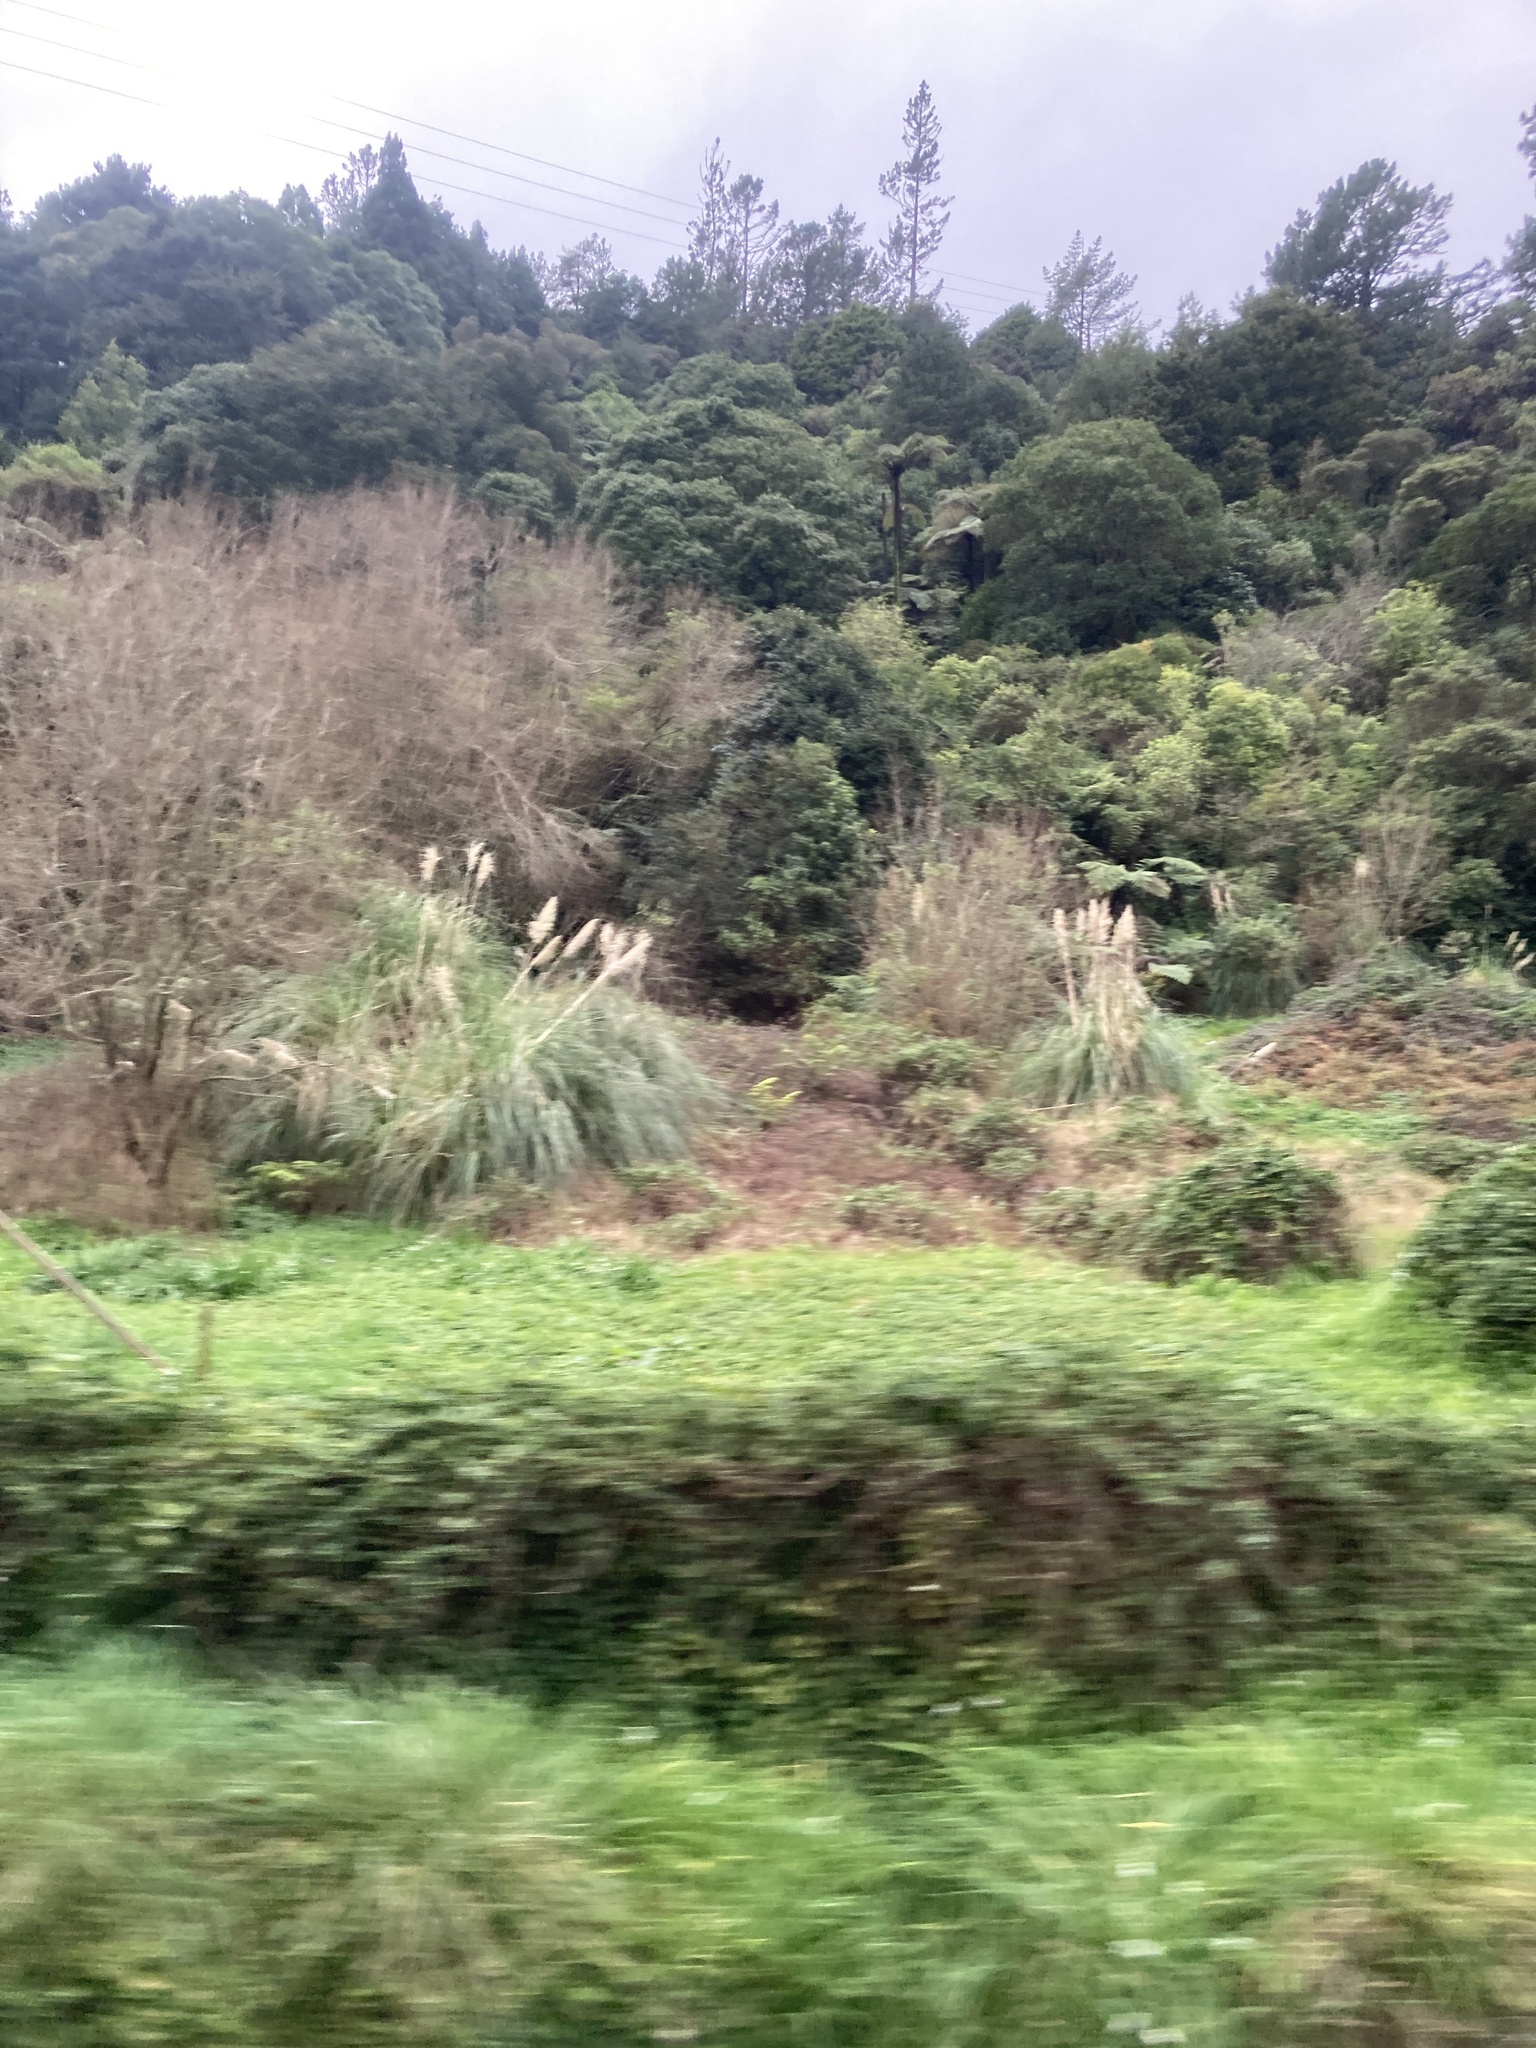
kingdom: Plantae
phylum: Tracheophyta
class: Liliopsida
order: Poales
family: Poaceae
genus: Cortaderia
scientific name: Cortaderia selloana
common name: Uruguayan pampas grass
